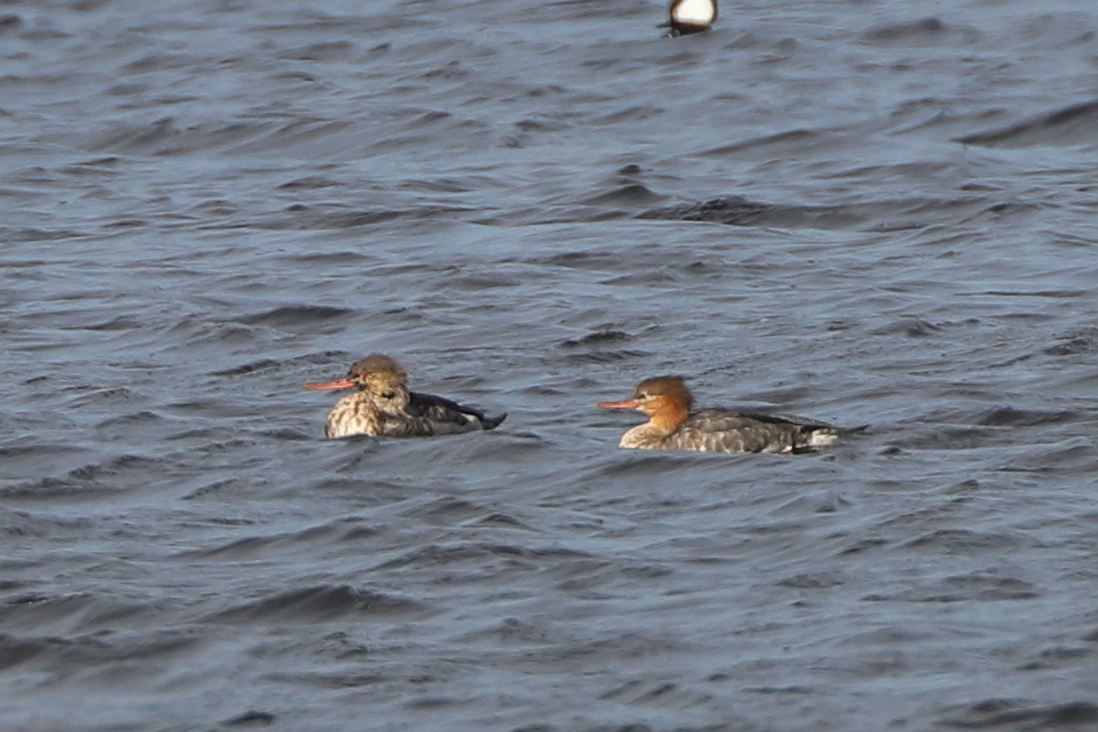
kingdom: Animalia
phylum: Chordata
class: Aves
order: Anseriformes
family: Anatidae
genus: Mergus
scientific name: Mergus serrator
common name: Red-breasted merganser
